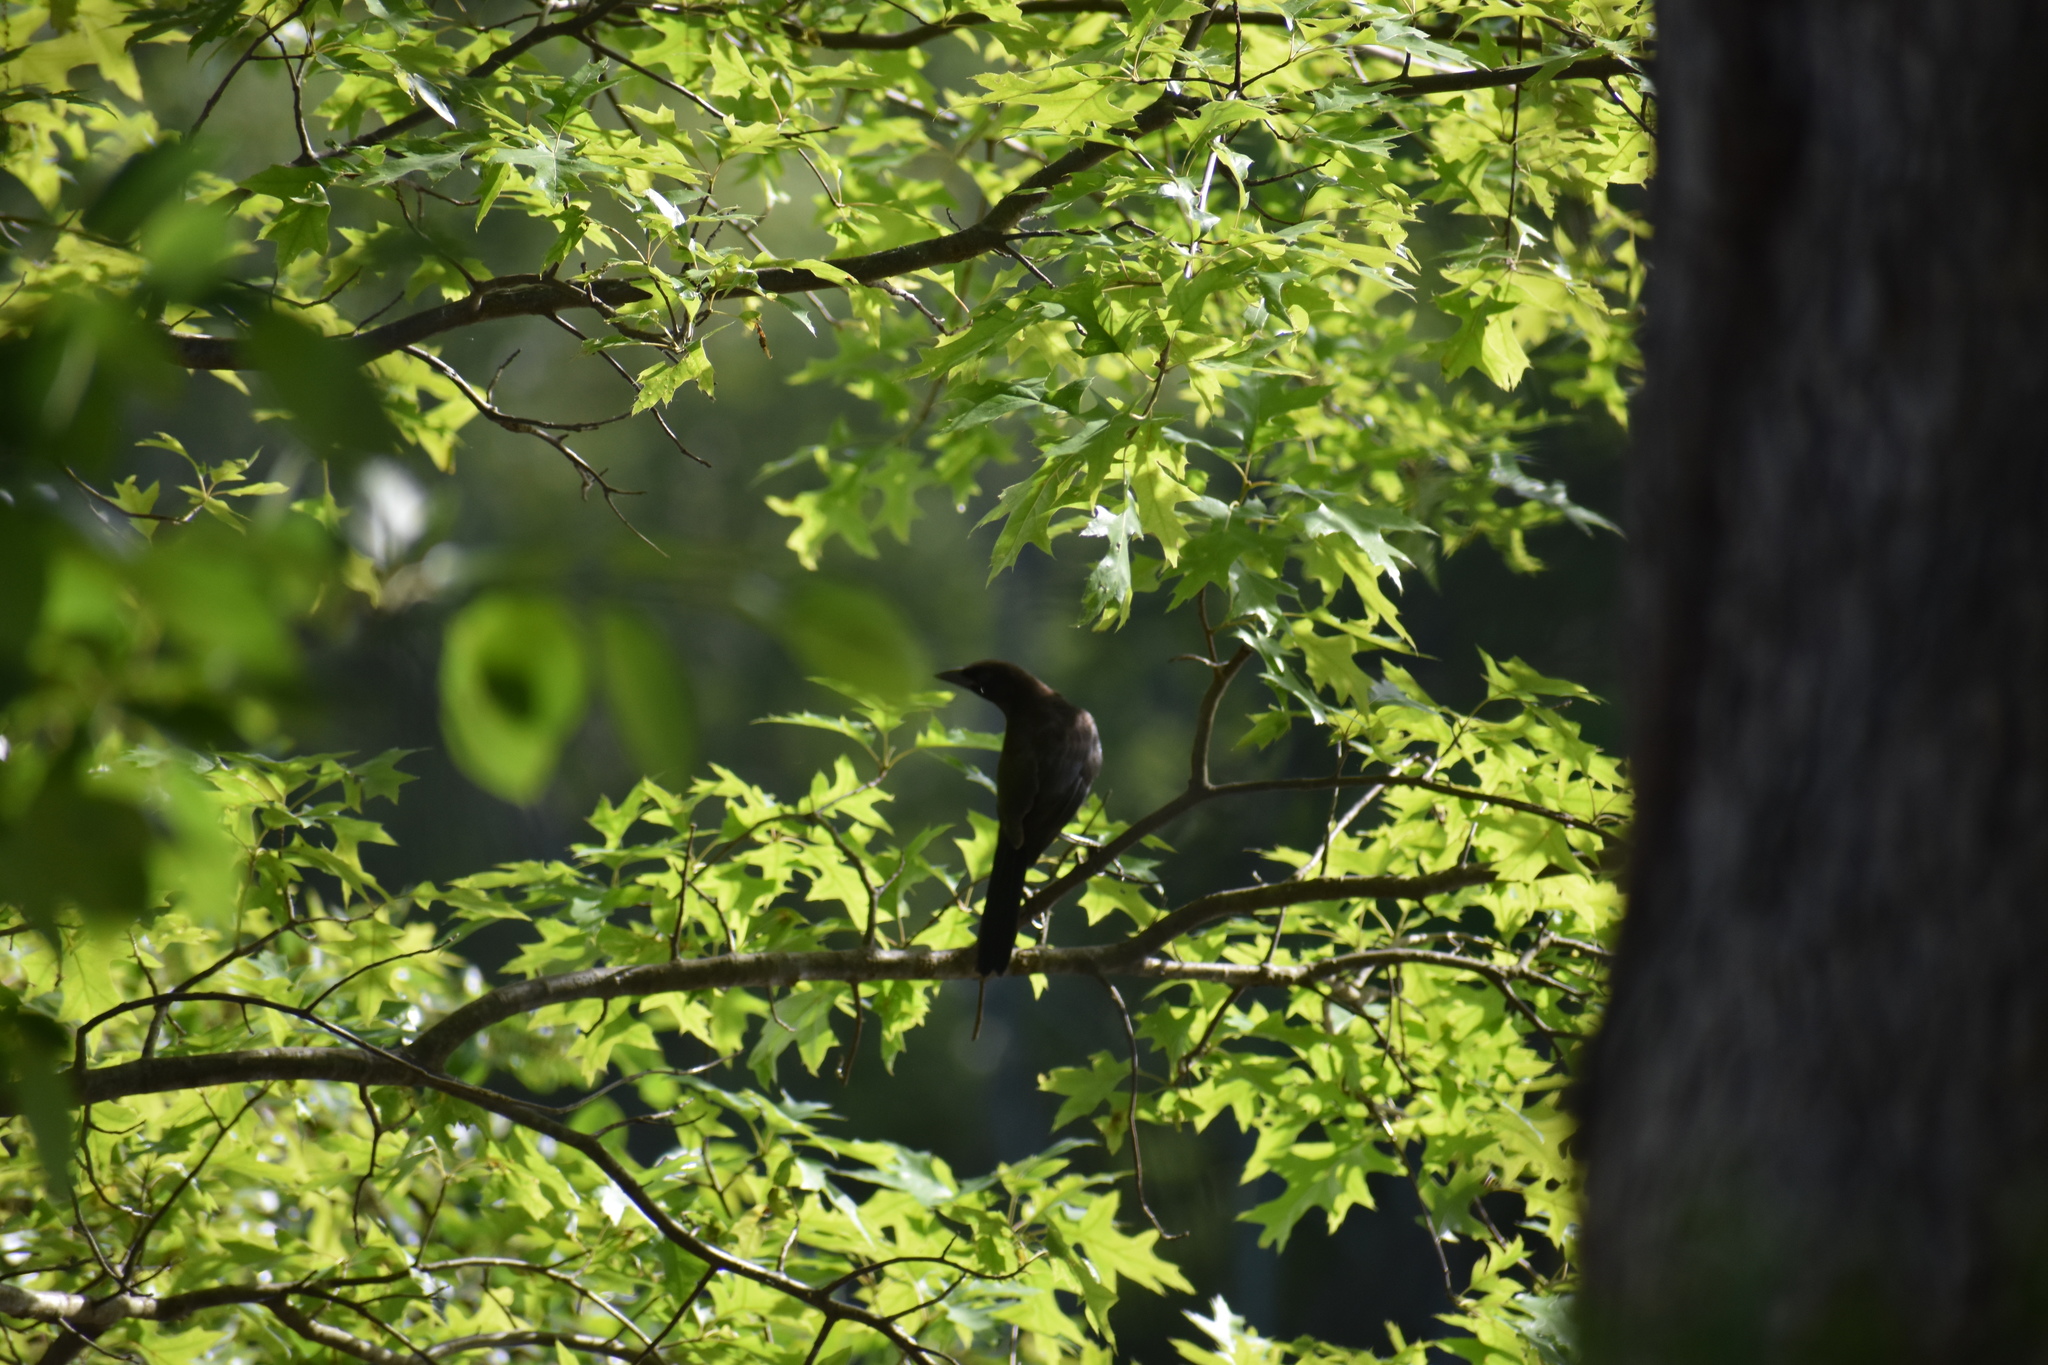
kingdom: Animalia
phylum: Chordata
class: Aves
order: Passeriformes
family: Icteridae
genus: Quiscalus
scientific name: Quiscalus quiscula
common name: Common grackle
